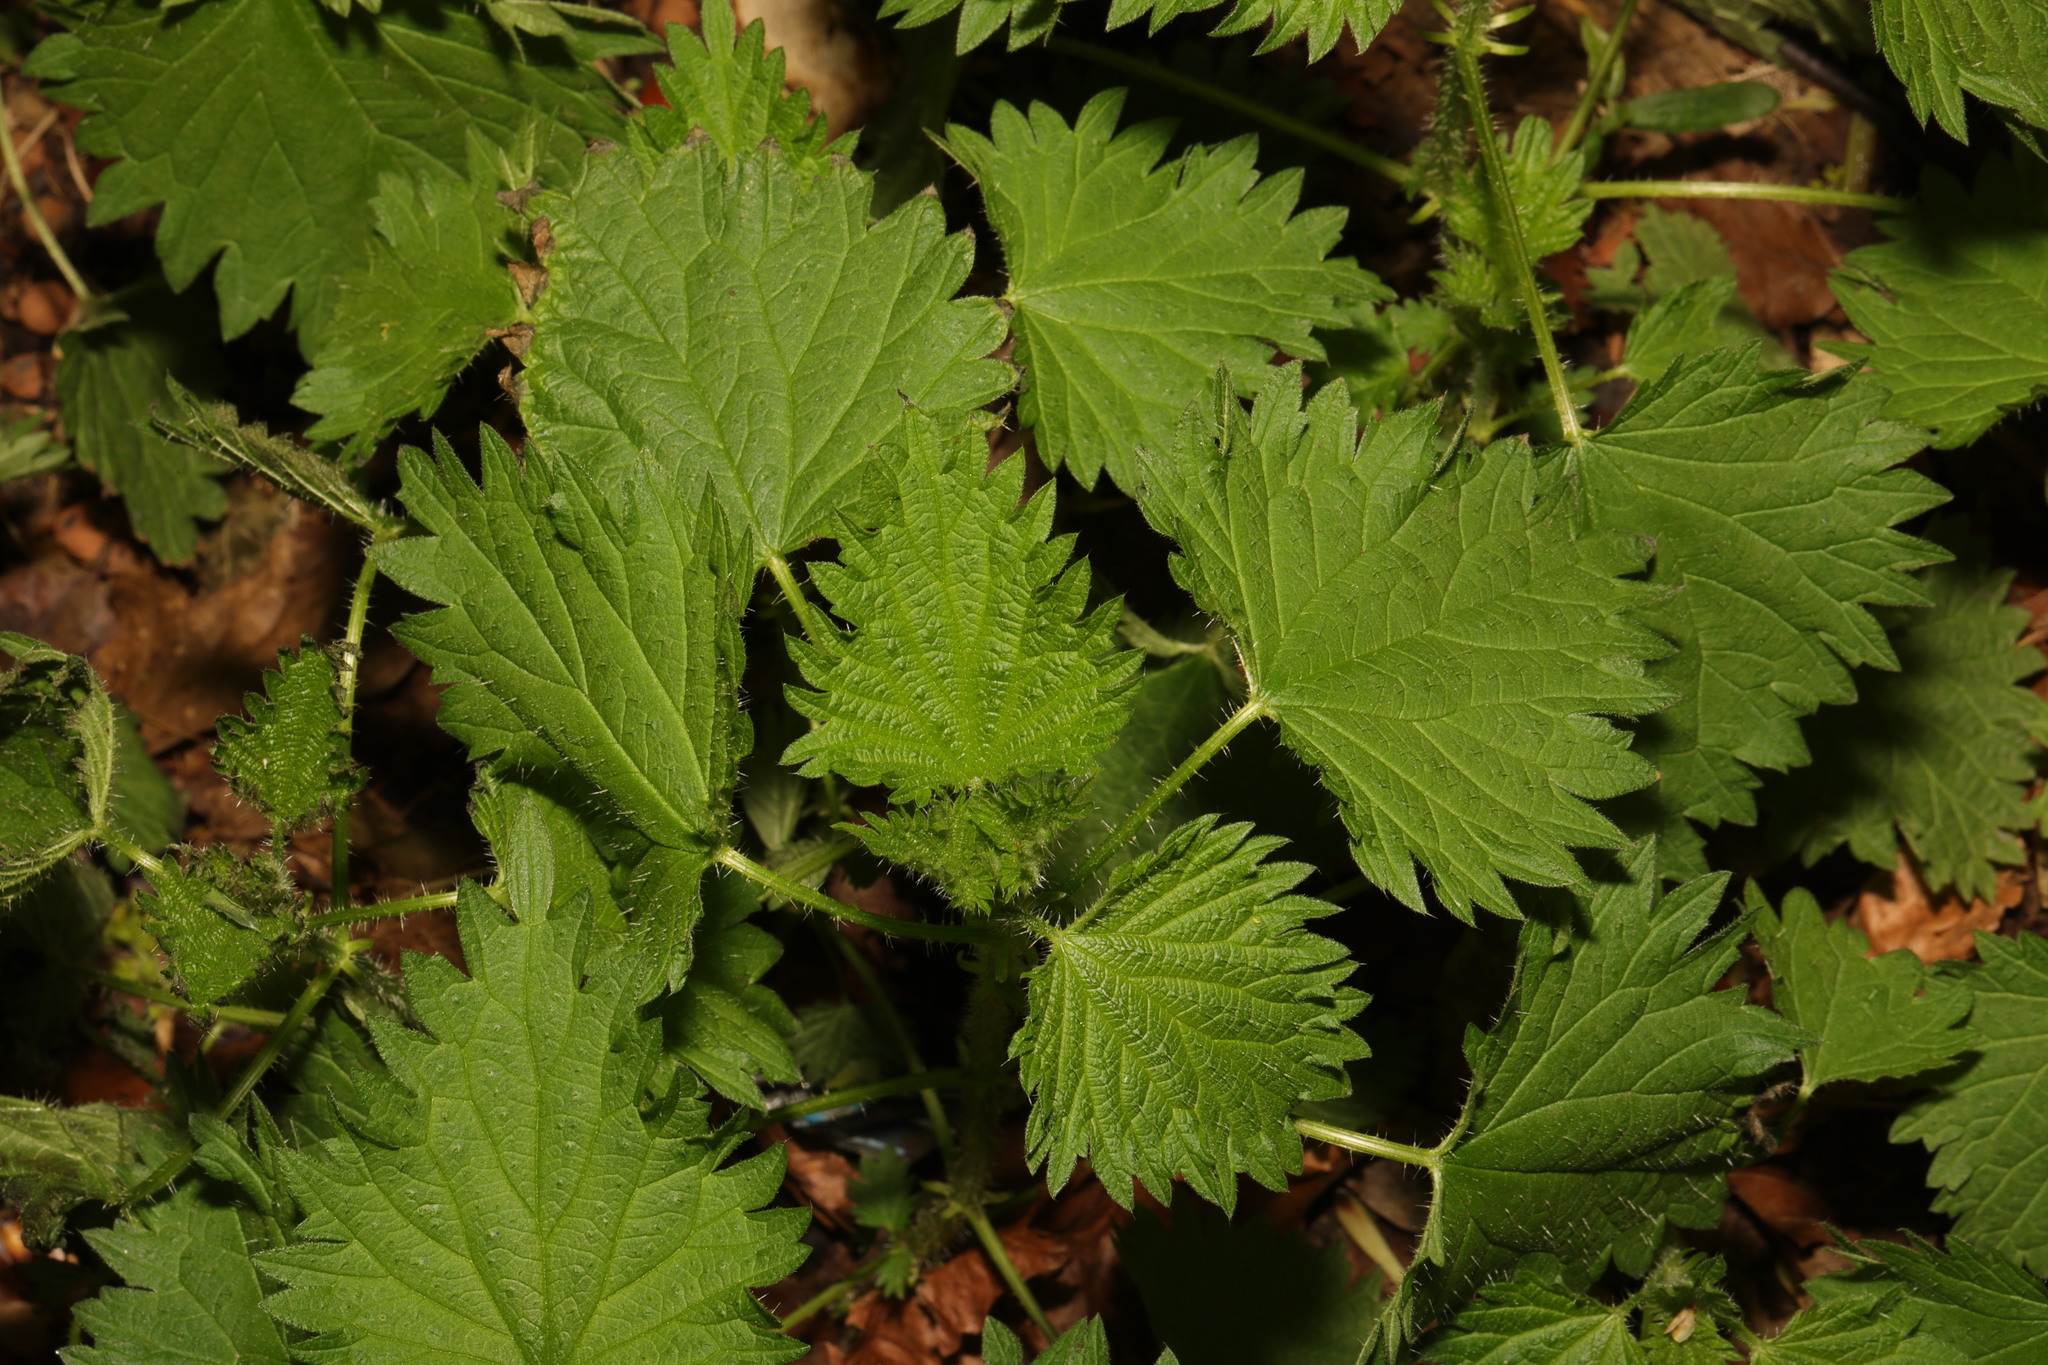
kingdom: Plantae
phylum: Tracheophyta
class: Magnoliopsida
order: Rosales
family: Urticaceae
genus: Urtica
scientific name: Urtica dioica
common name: Common nettle
